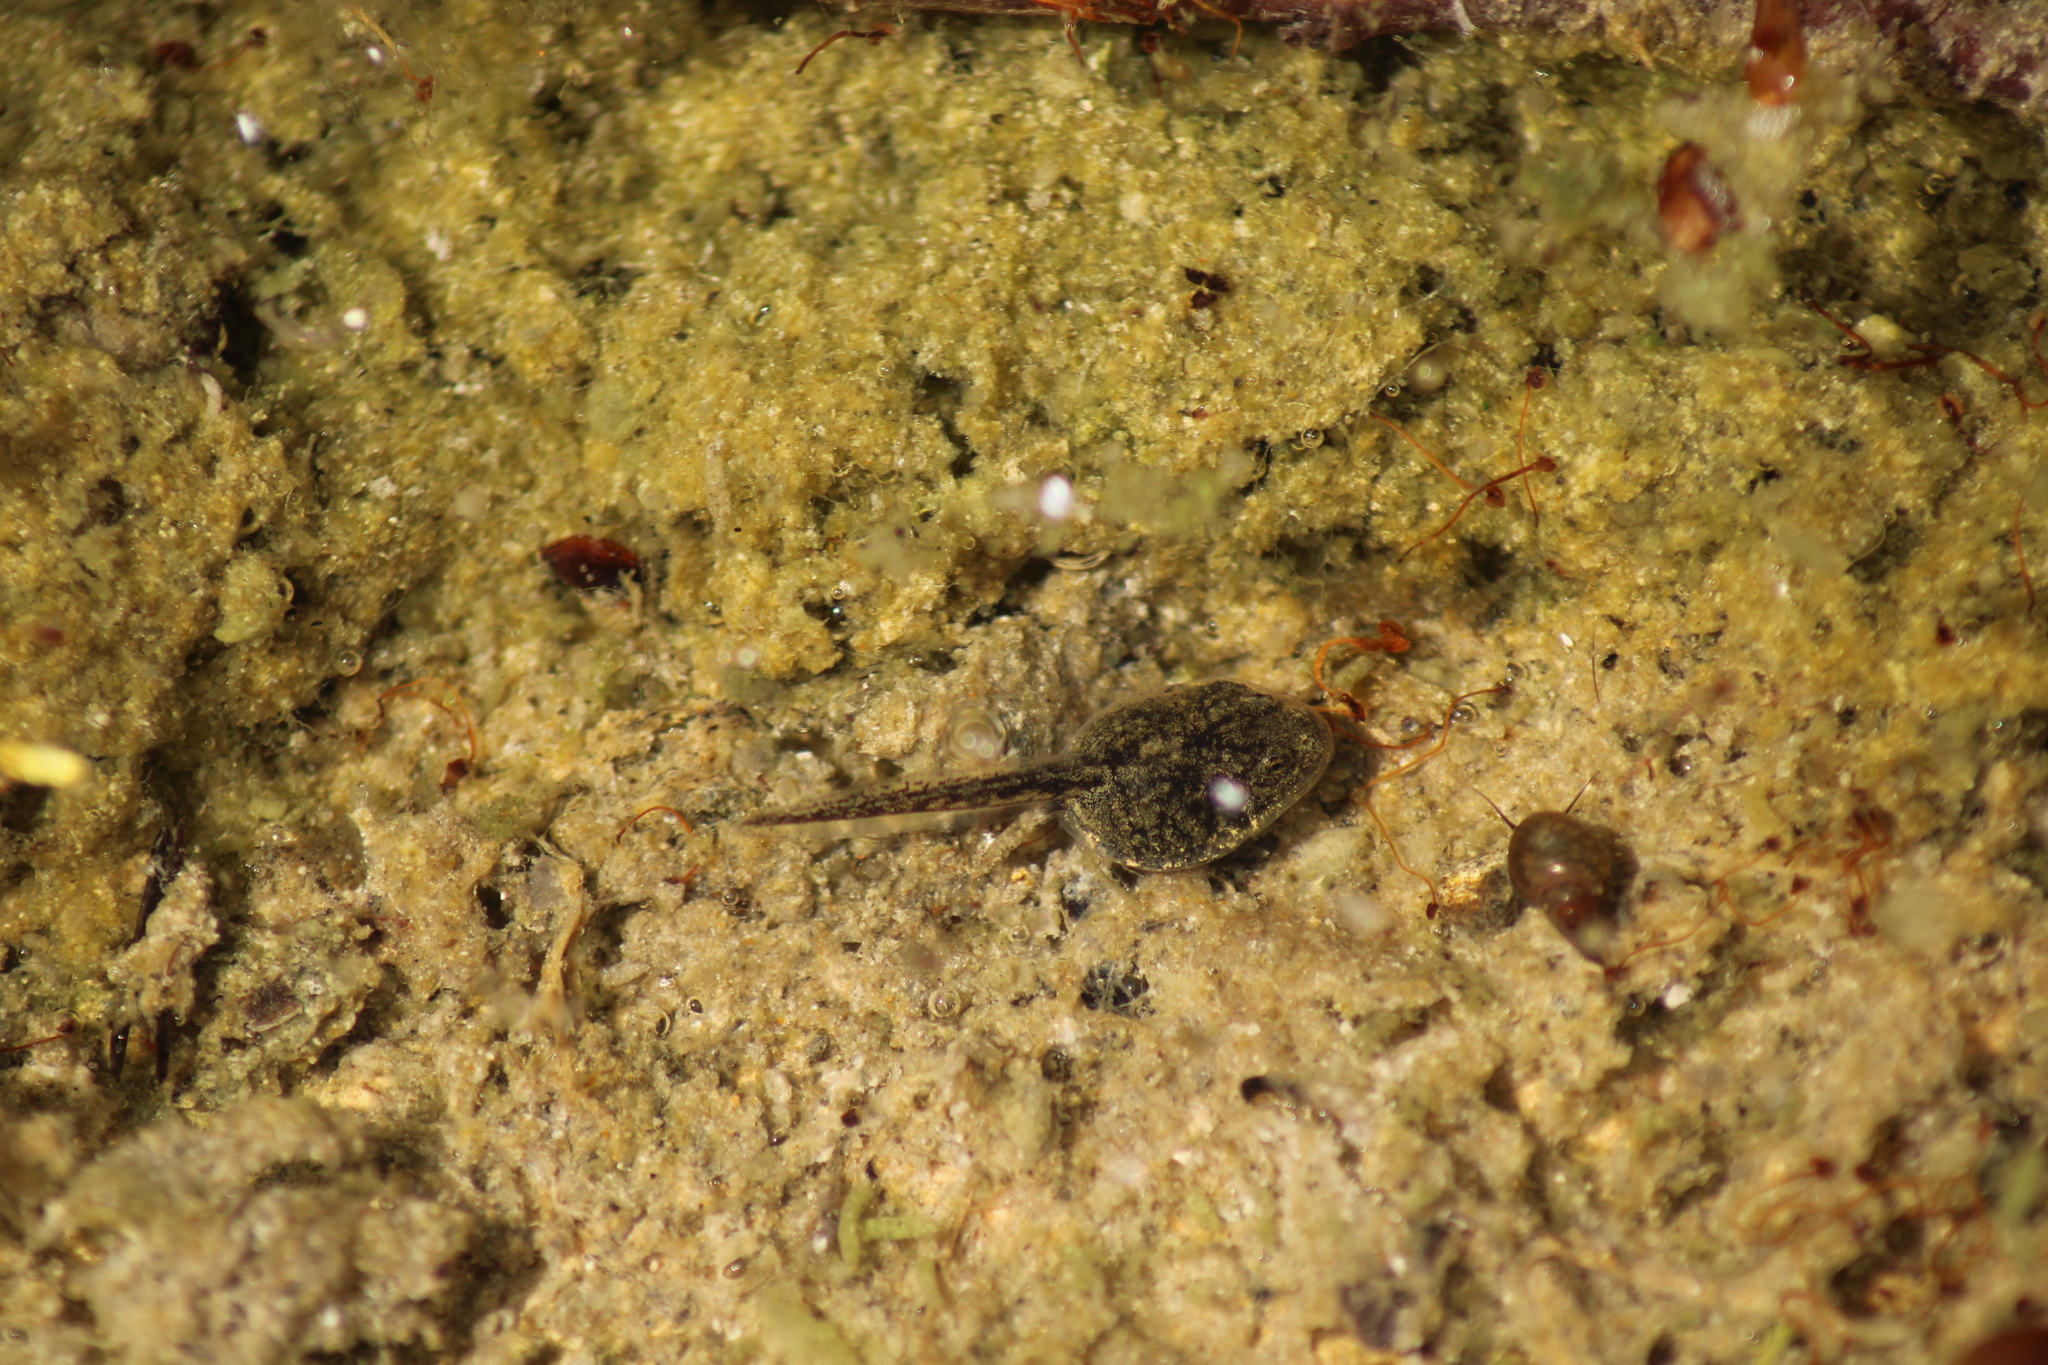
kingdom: Animalia
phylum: Chordata
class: Amphibia
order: Anura
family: Bufonidae
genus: Bufotes
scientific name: Bufotes viridis
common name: European green toad
